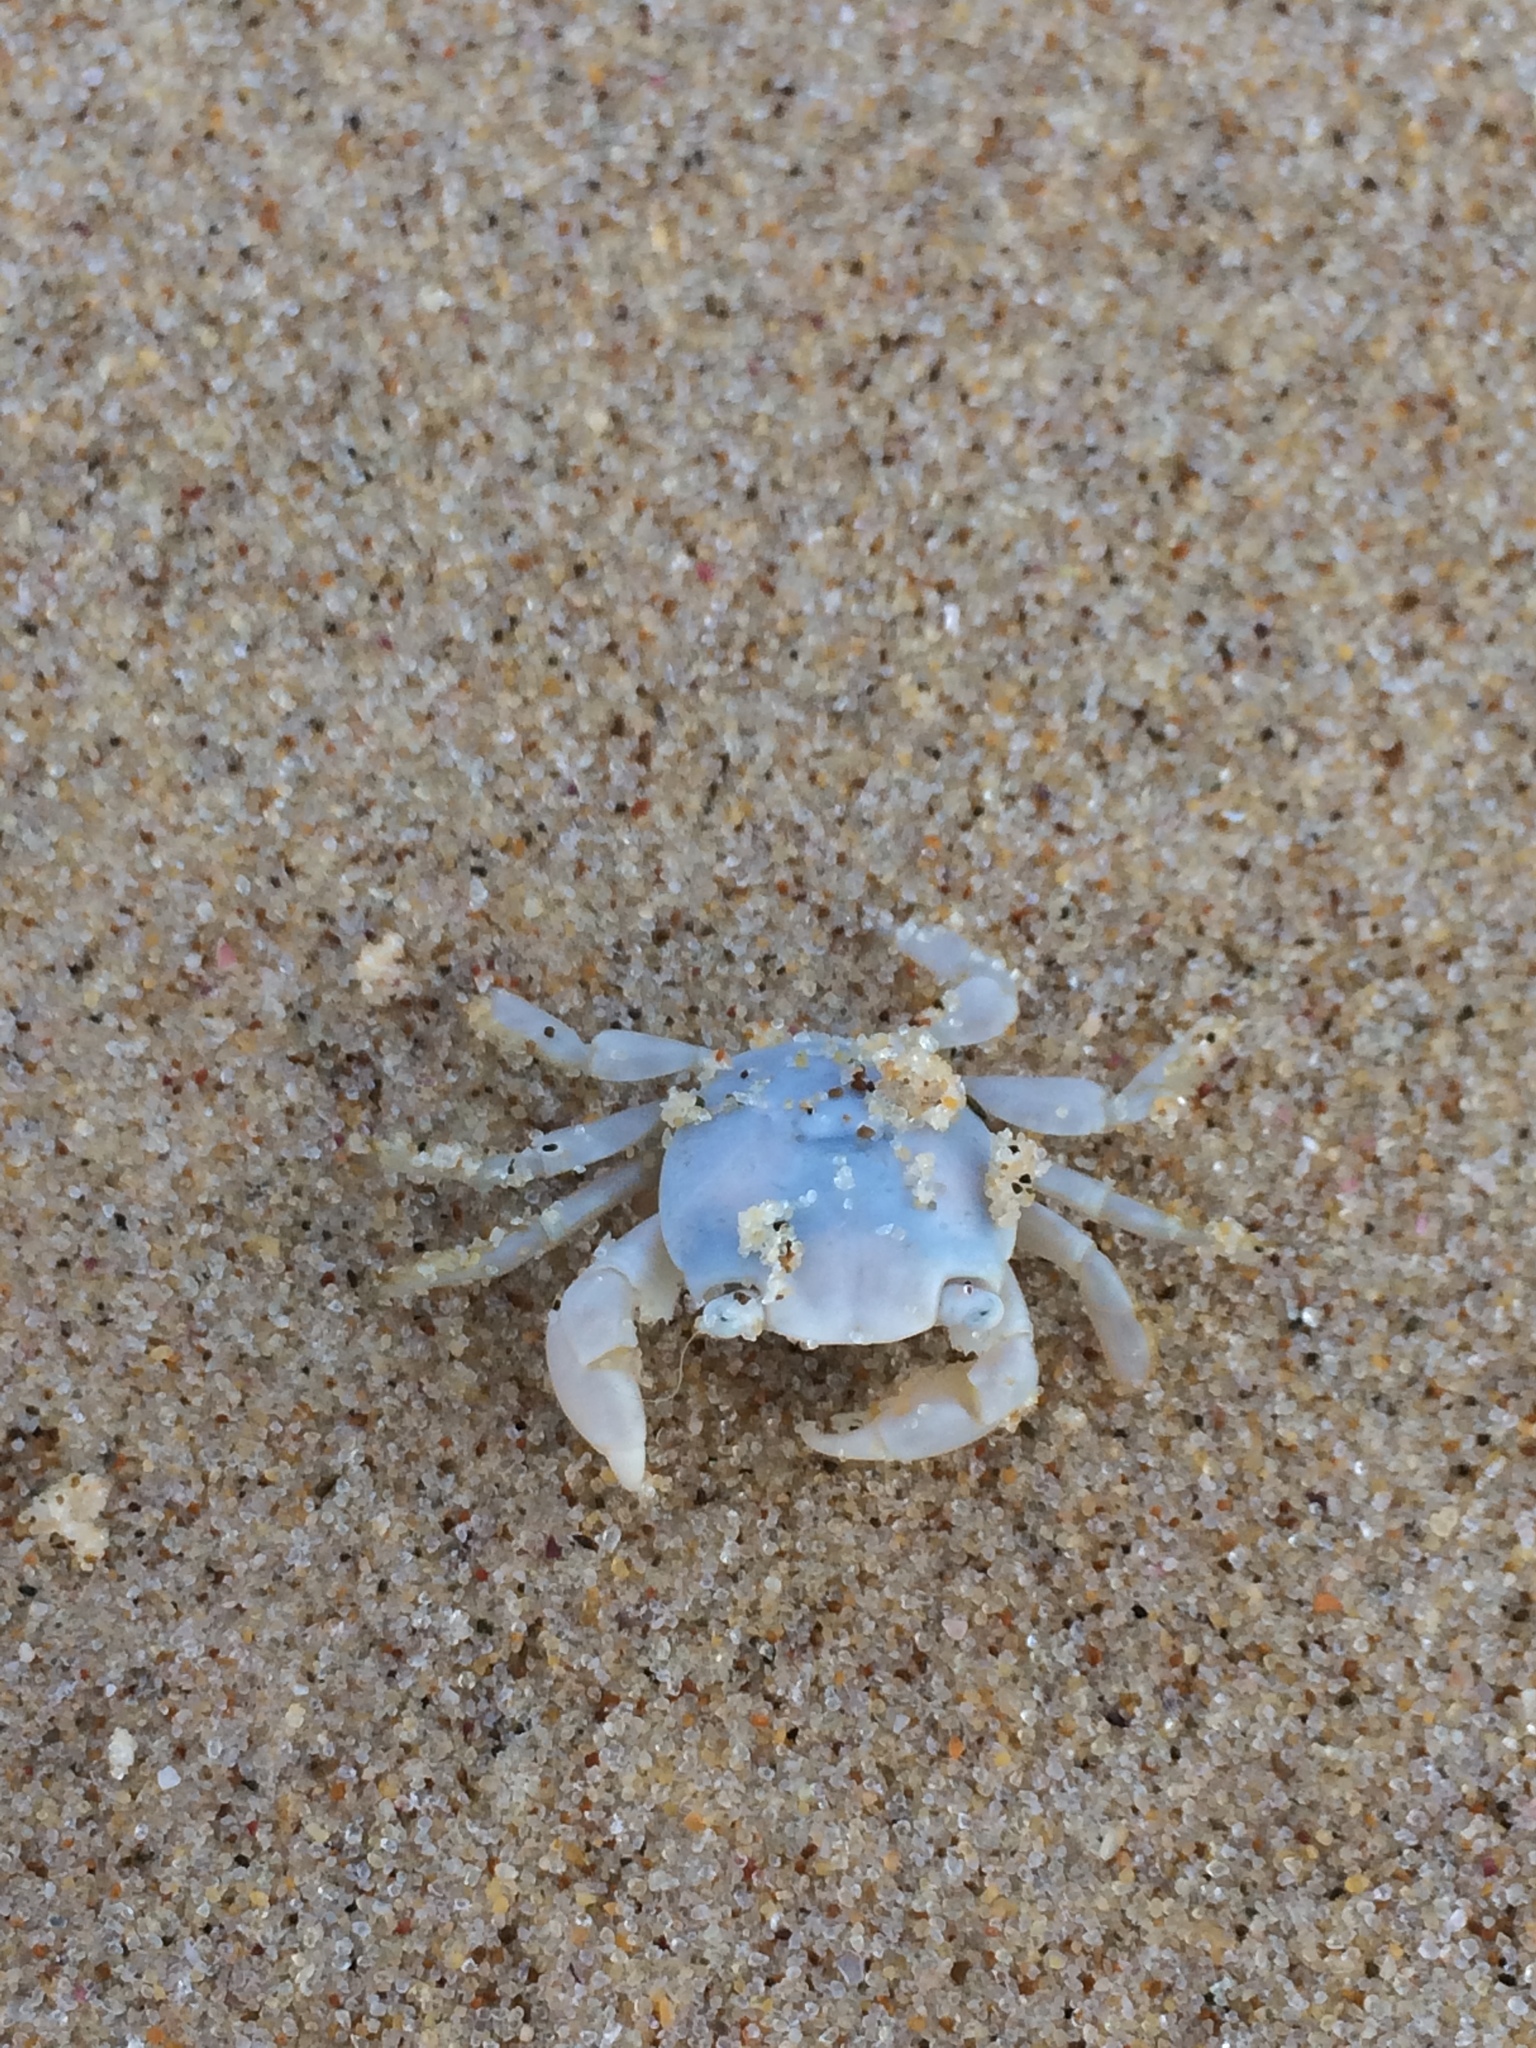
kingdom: Animalia
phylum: Arthropoda
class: Malacostraca
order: Decapoda
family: Grapsidae
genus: Planes
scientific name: Planes minutus
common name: Gulf weed crab
